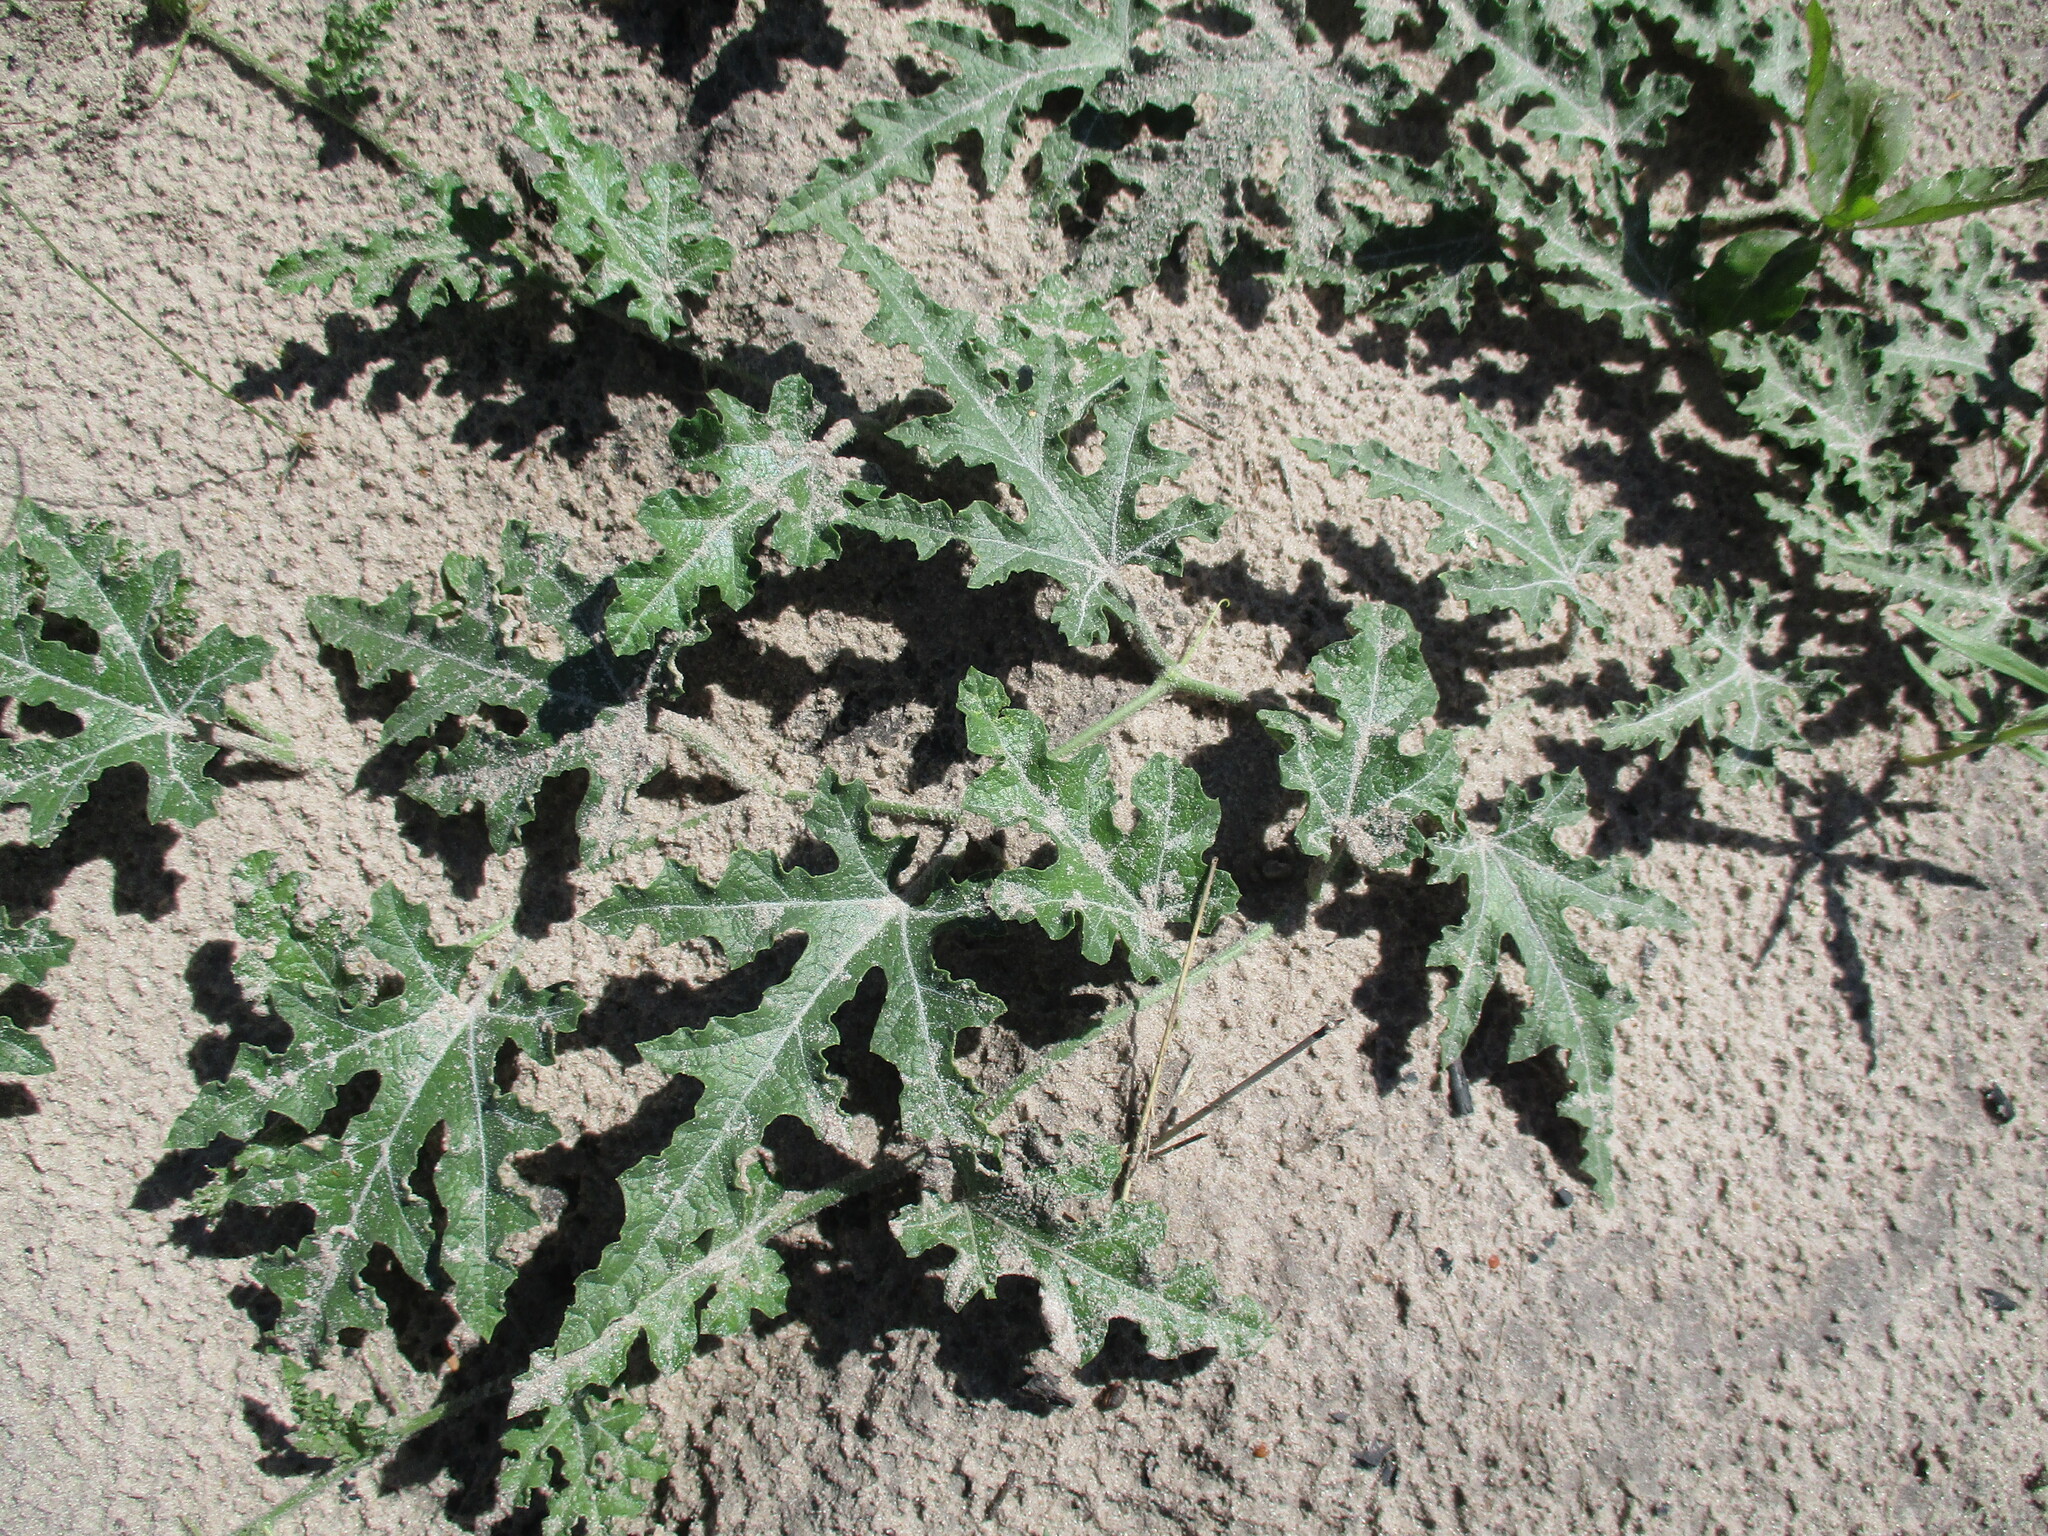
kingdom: Plantae
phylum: Tracheophyta
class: Magnoliopsida
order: Cucurbitales
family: Cucurbitaceae
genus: Citrullus
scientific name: Citrullus naudinianus
